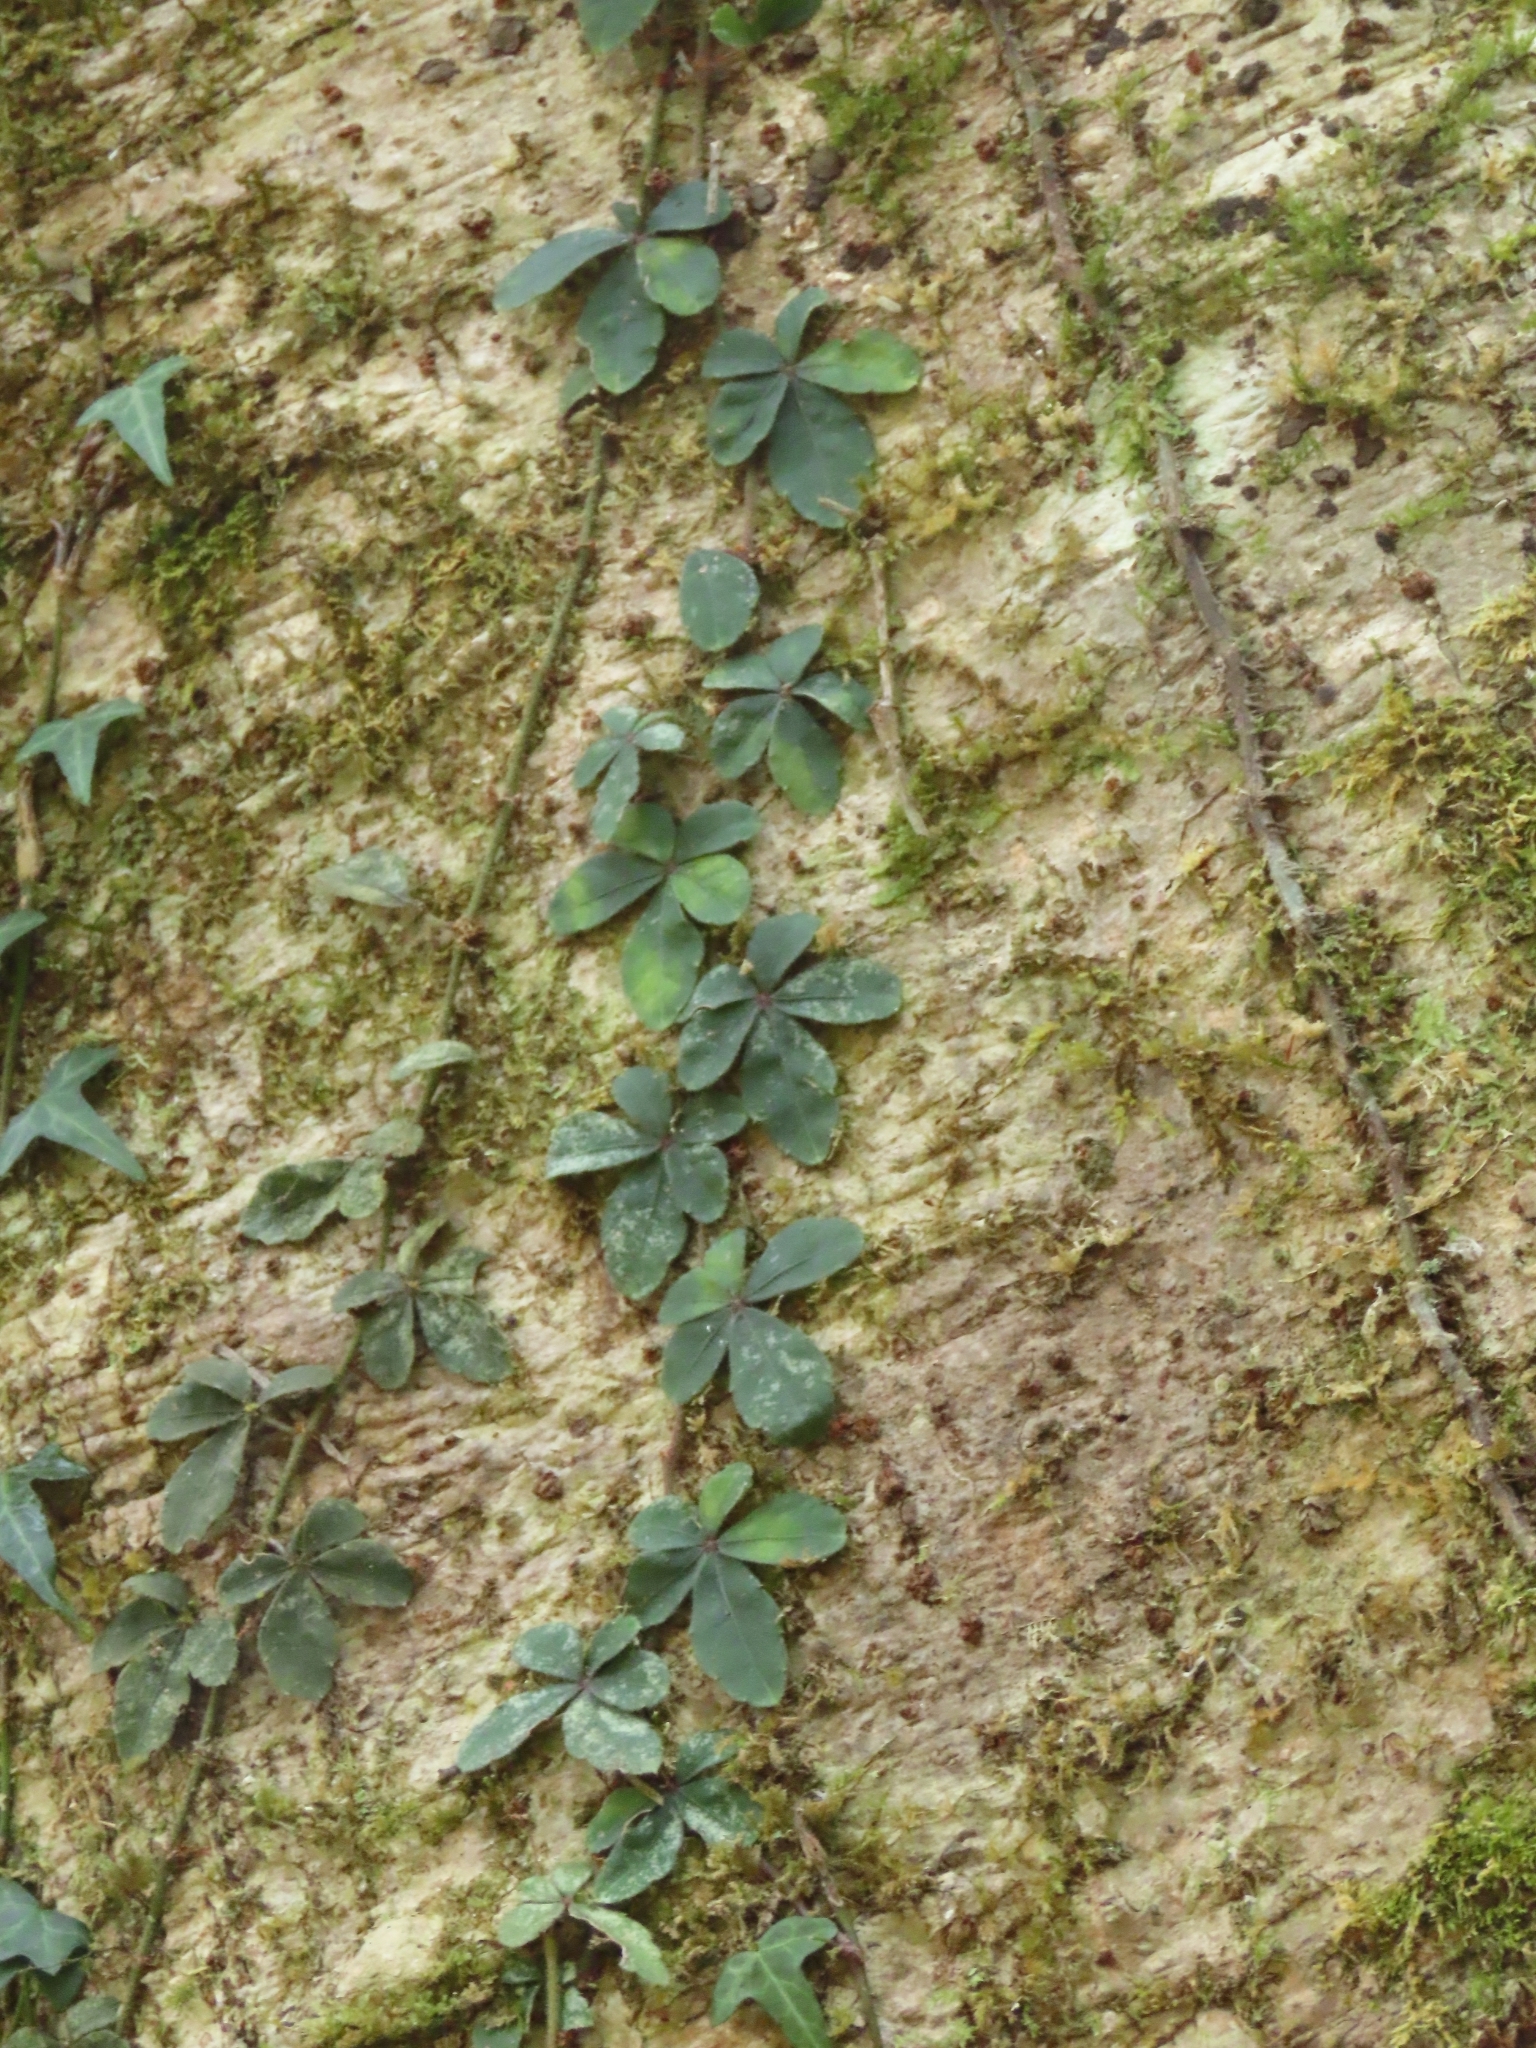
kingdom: Plantae
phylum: Tracheophyta
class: Magnoliopsida
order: Vitales
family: Vitaceae
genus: Tetrastigma
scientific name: Tetrastigma obtectum
